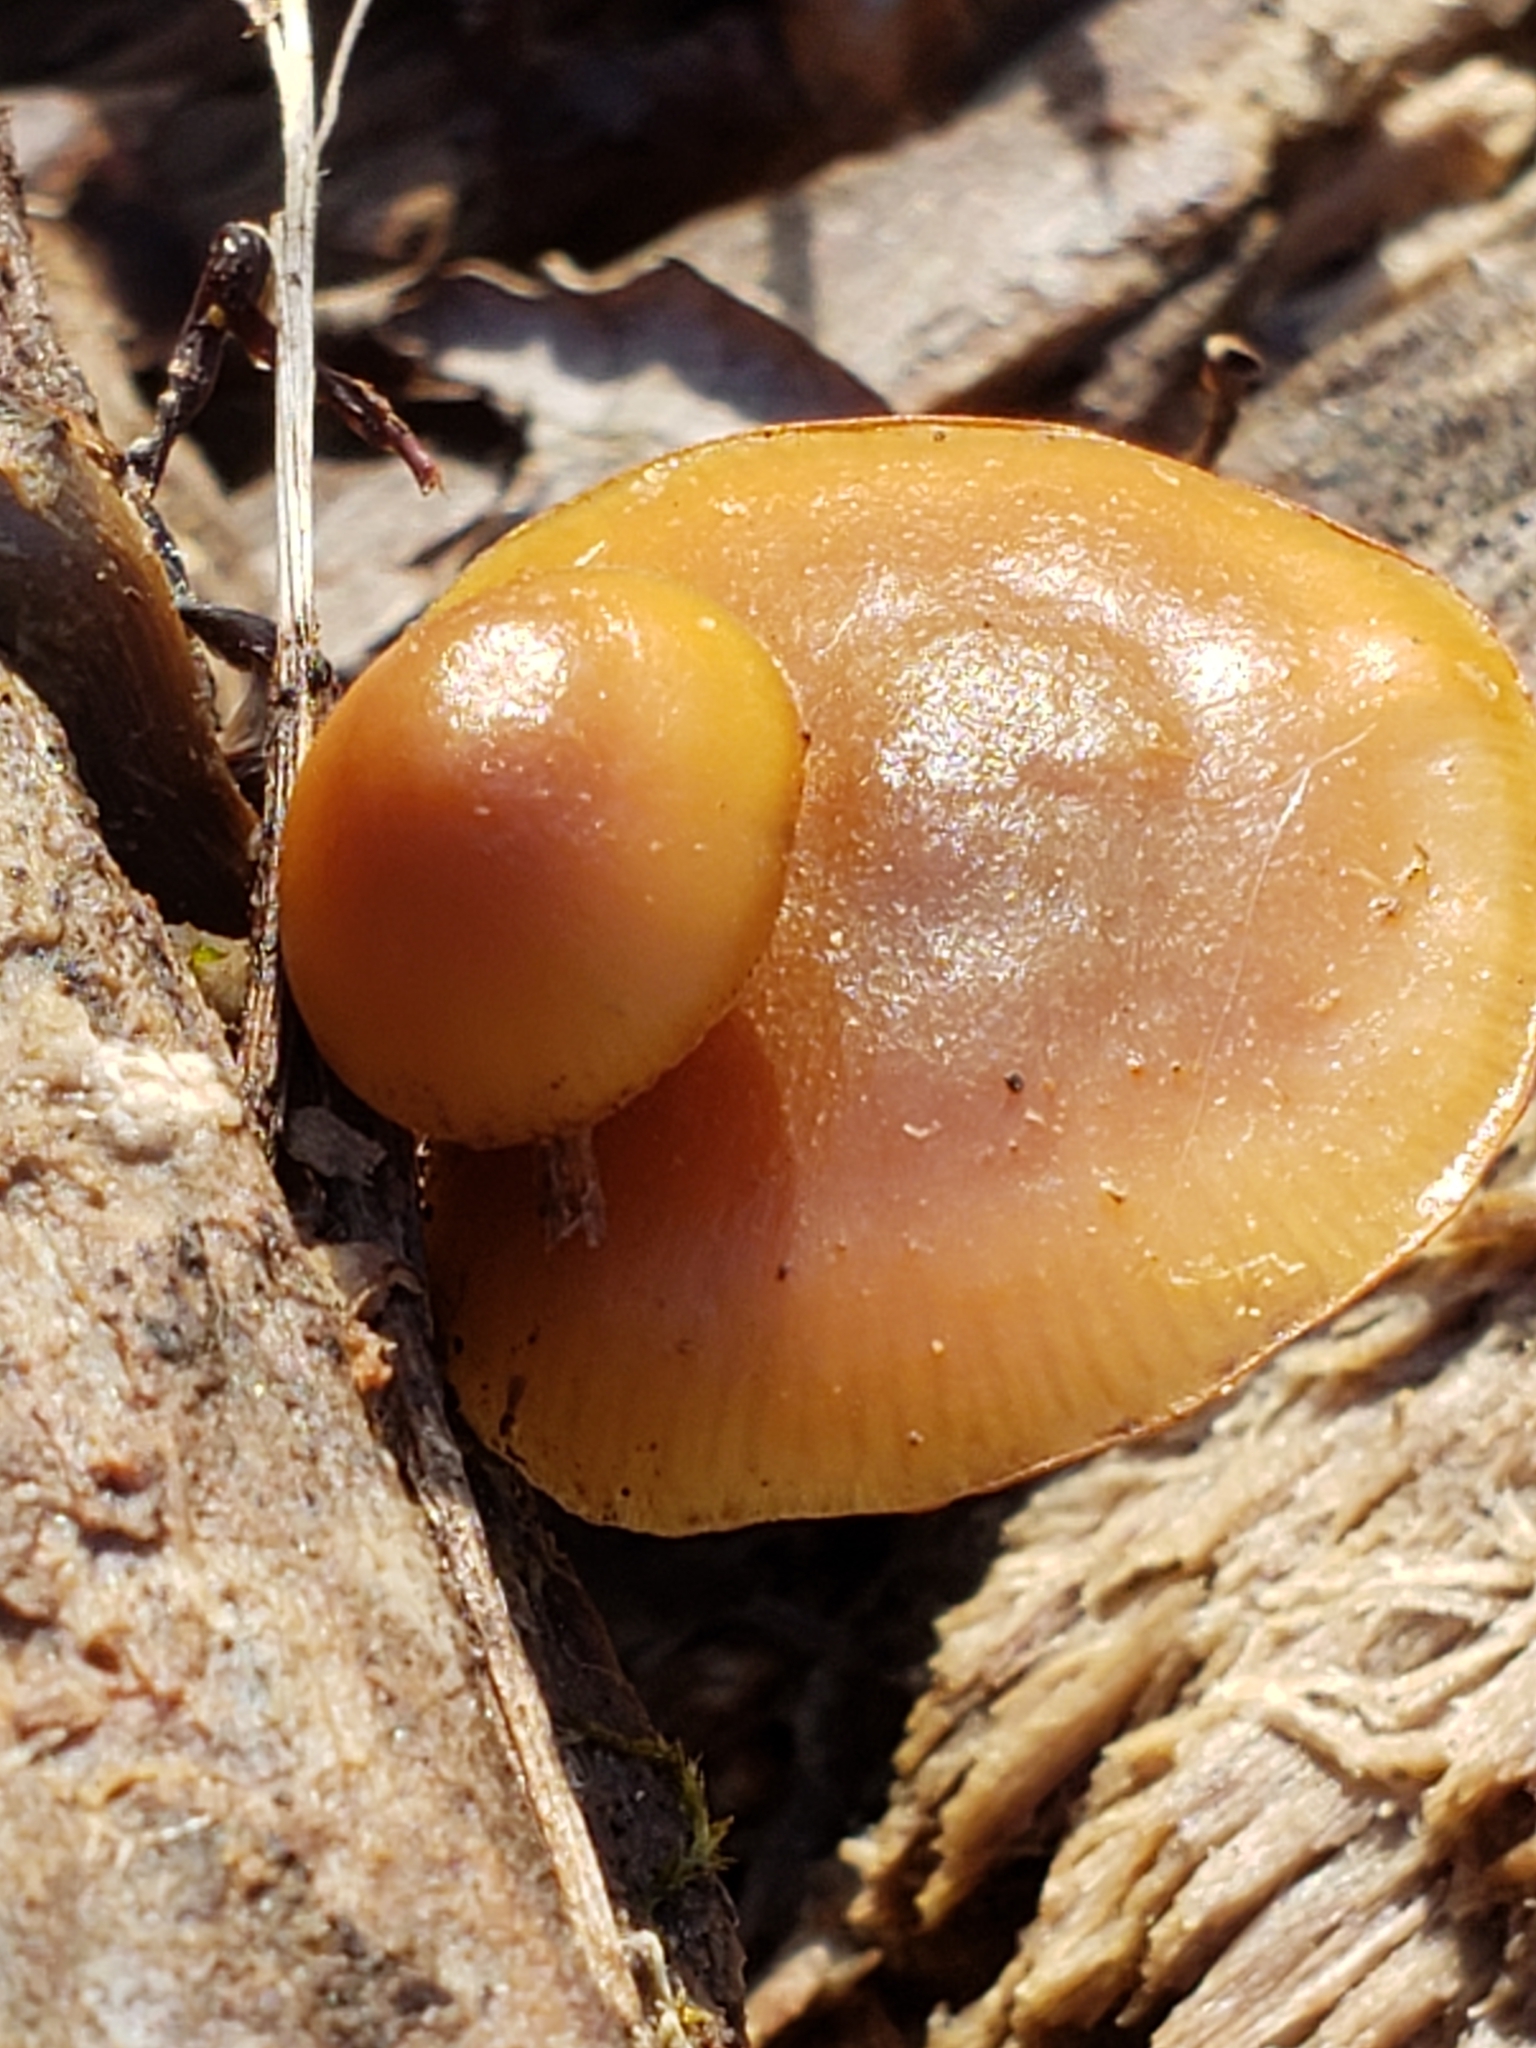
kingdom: Fungi
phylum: Basidiomycota
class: Agaricomycetes
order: Agaricales
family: Hymenogastraceae
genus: Galerina
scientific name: Galerina marginata
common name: Funeral bell
